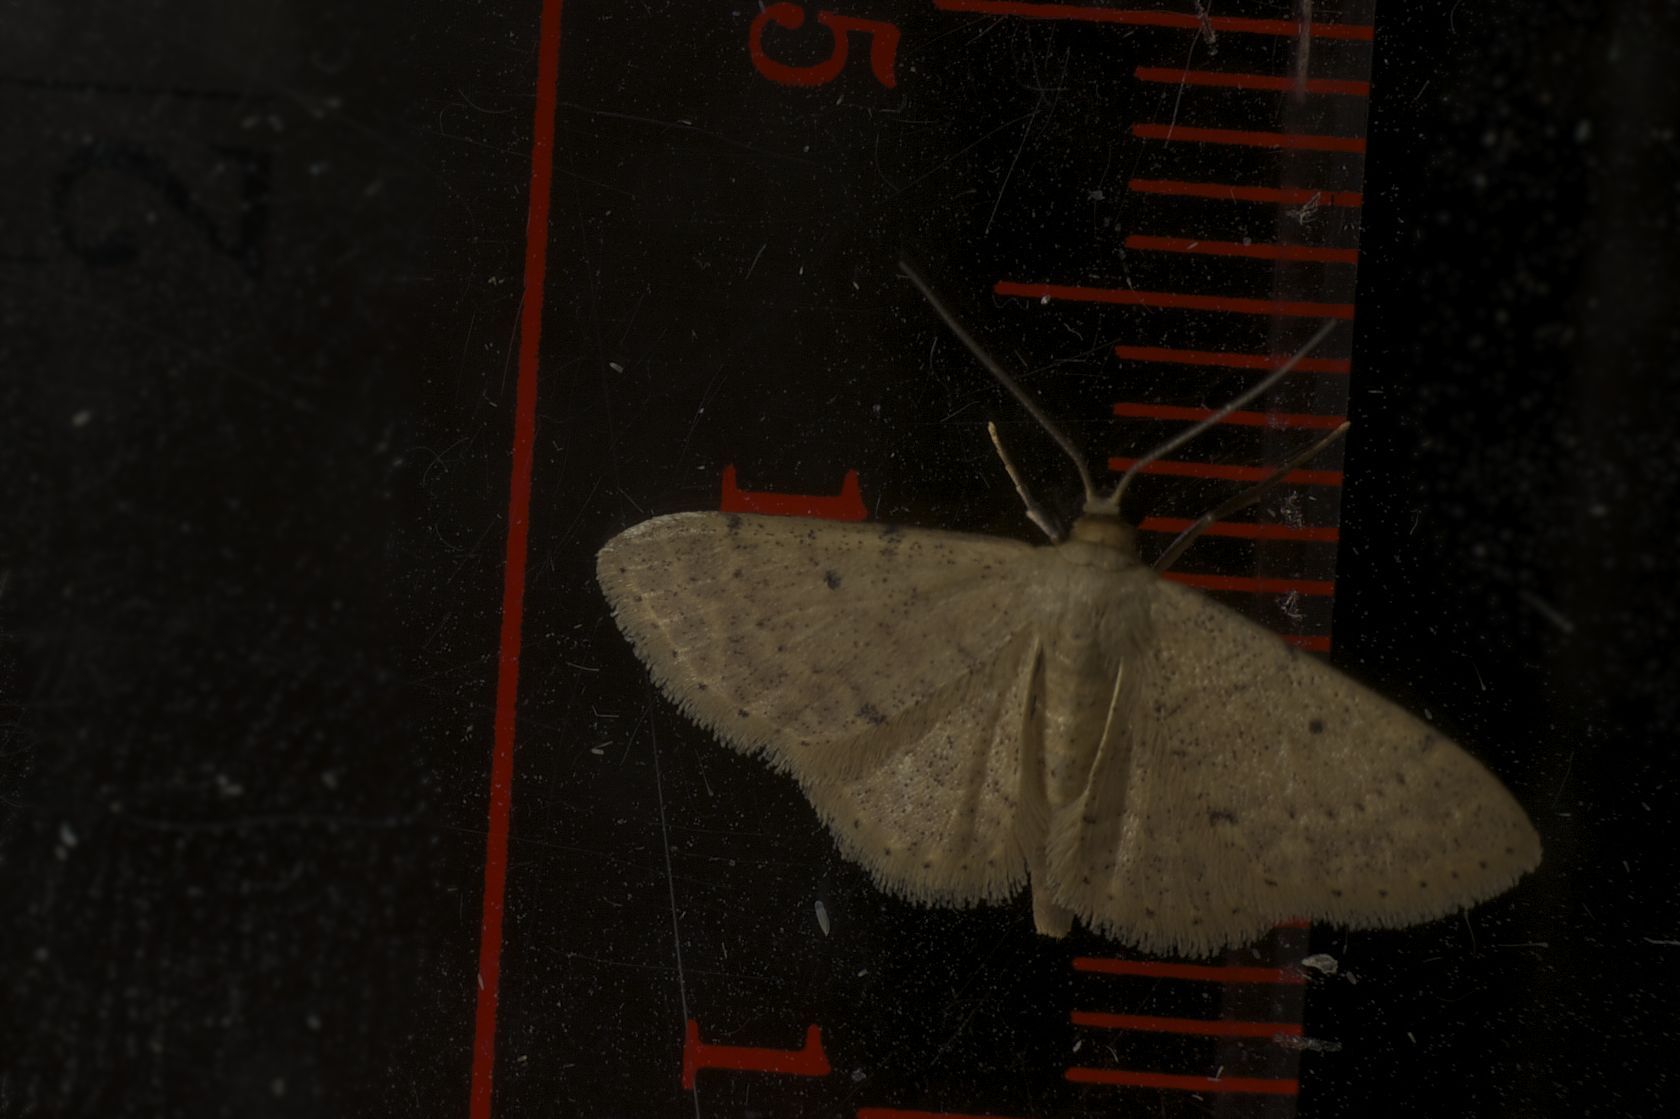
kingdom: Animalia
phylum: Arthropoda
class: Insecta
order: Lepidoptera
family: Geometridae
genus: Idaea
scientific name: Idaea ptyonopoda
